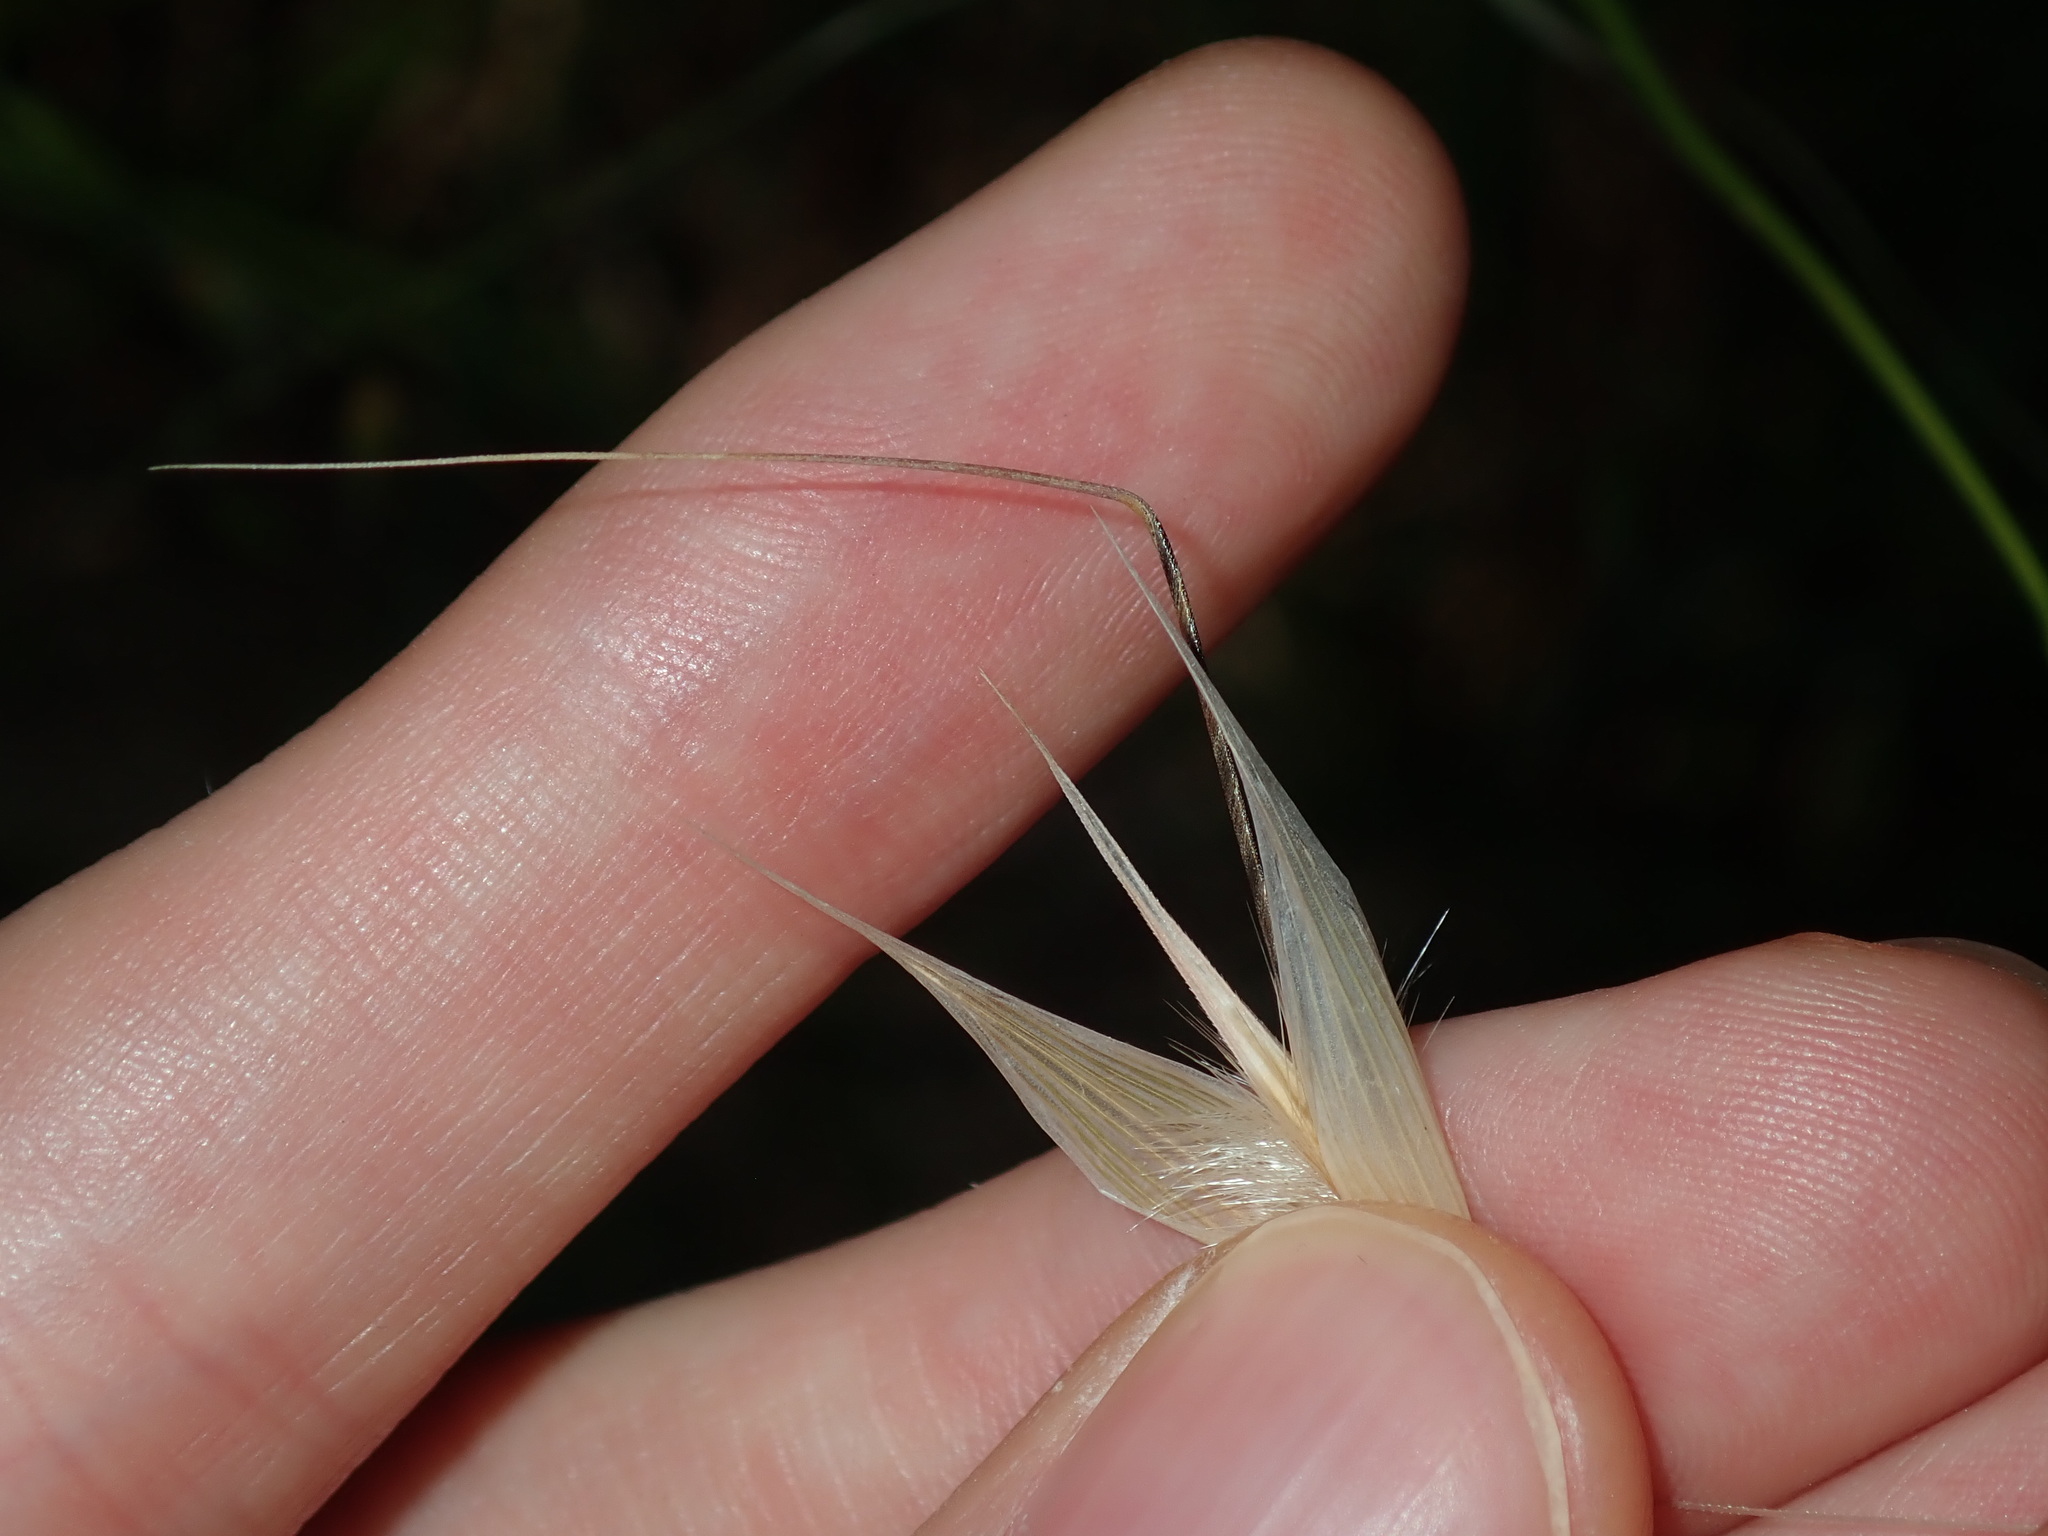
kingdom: Plantae
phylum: Tracheophyta
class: Liliopsida
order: Poales
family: Poaceae
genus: Avena
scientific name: Avena barbata
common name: Slender oat
